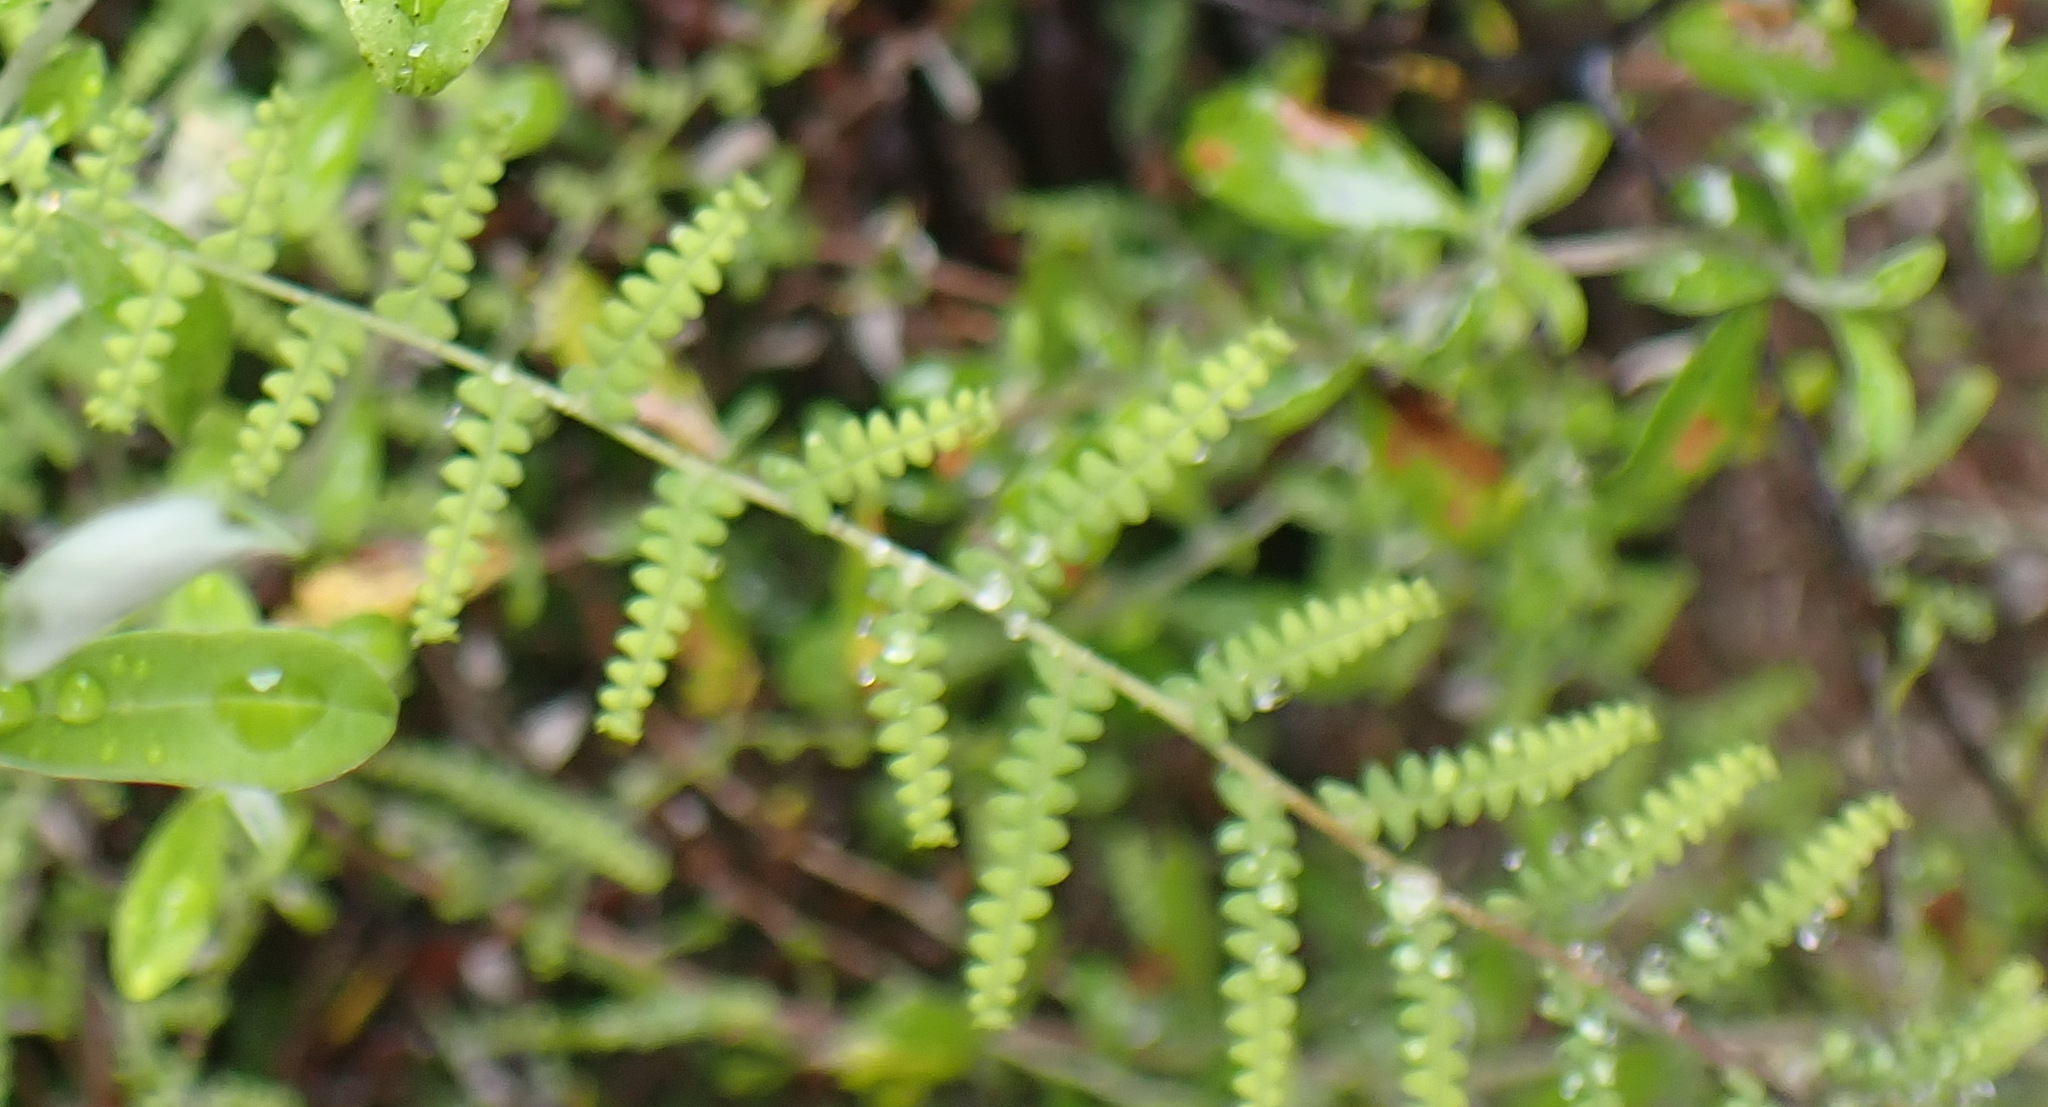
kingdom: Plantae
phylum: Tracheophyta
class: Polypodiopsida
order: Gleicheniales
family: Gleicheniaceae
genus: Gleichenia
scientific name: Gleichenia polypodioides
